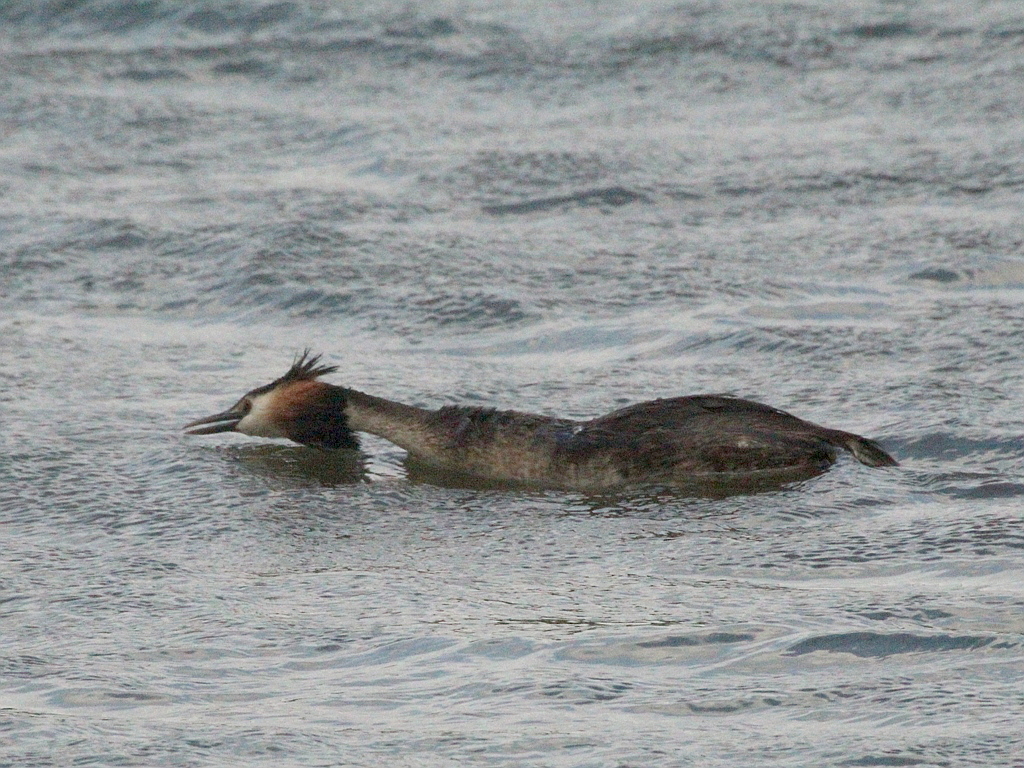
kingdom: Animalia
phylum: Chordata
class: Aves
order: Podicipediformes
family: Podicipedidae
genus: Podiceps
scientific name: Podiceps cristatus
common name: Great crested grebe
